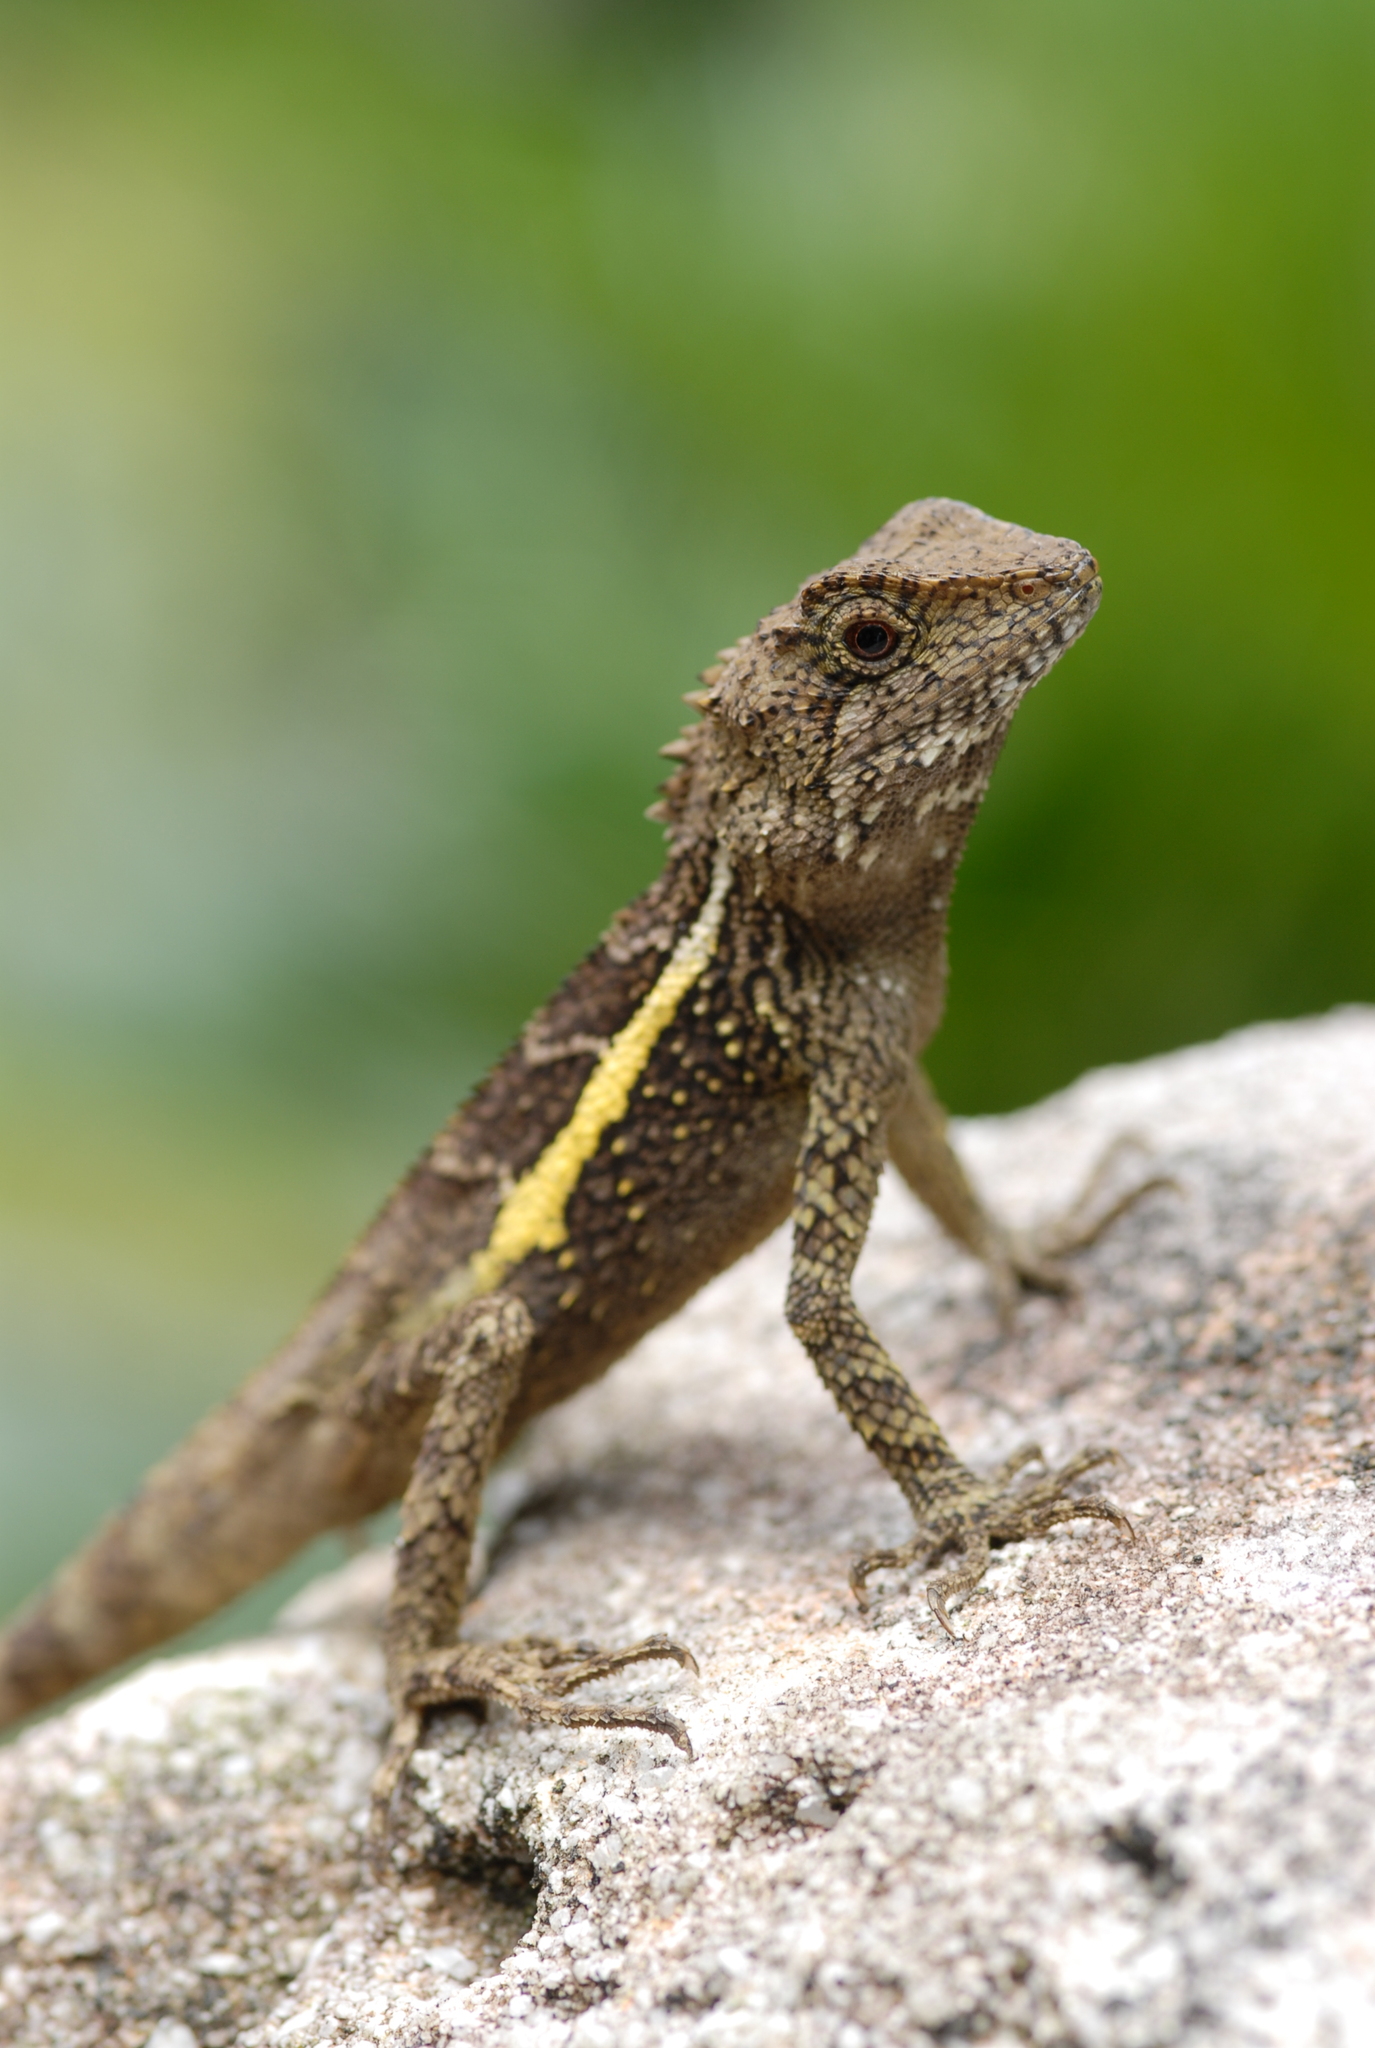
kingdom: Animalia
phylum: Chordata
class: Squamata
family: Agamidae
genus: Diploderma
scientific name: Diploderma swinhonis
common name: Taiwan japalure
